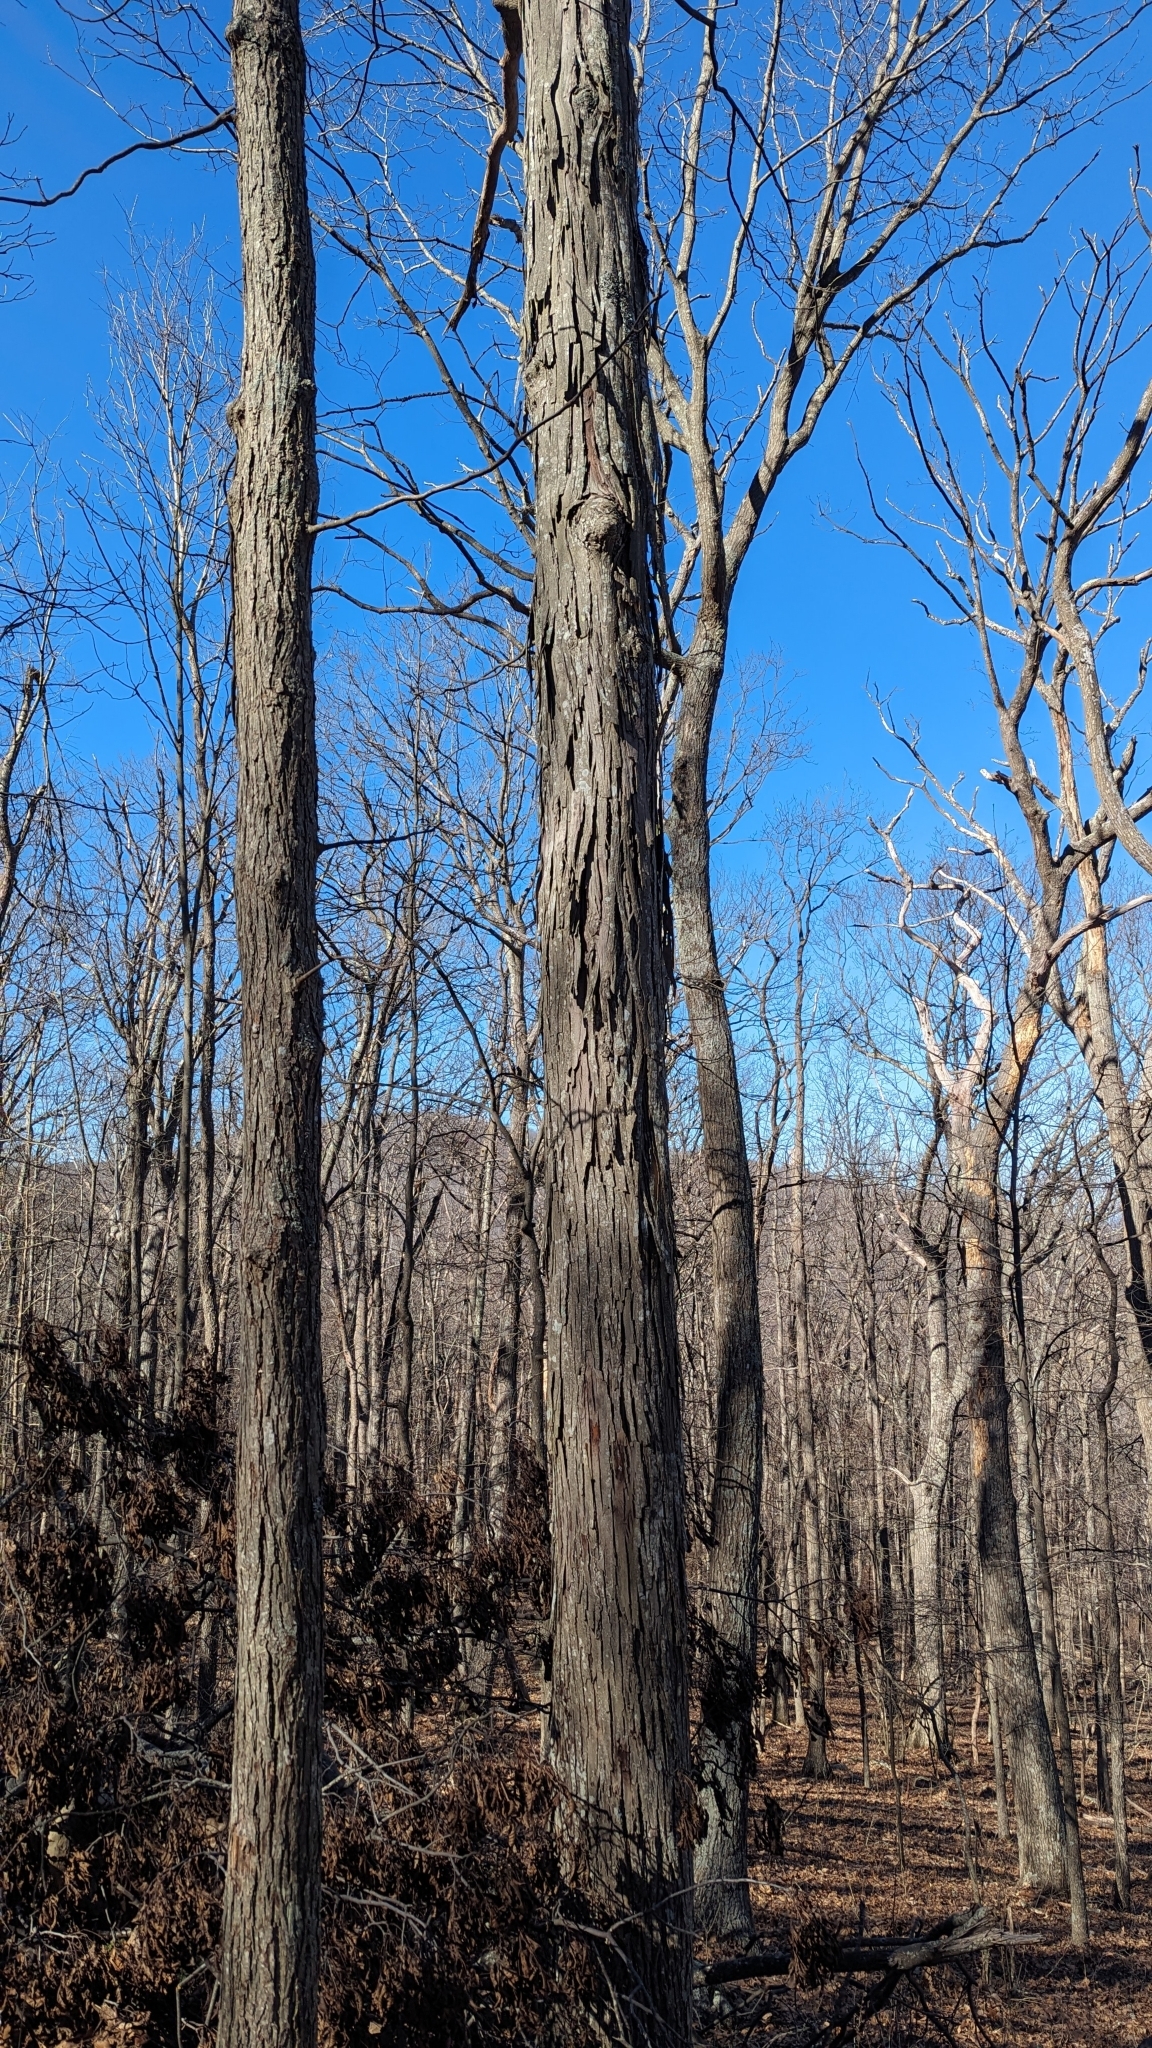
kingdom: Plantae
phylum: Tracheophyta
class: Magnoliopsida
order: Fagales
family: Juglandaceae
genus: Carya
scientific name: Carya ovata
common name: Shagbark hickory
